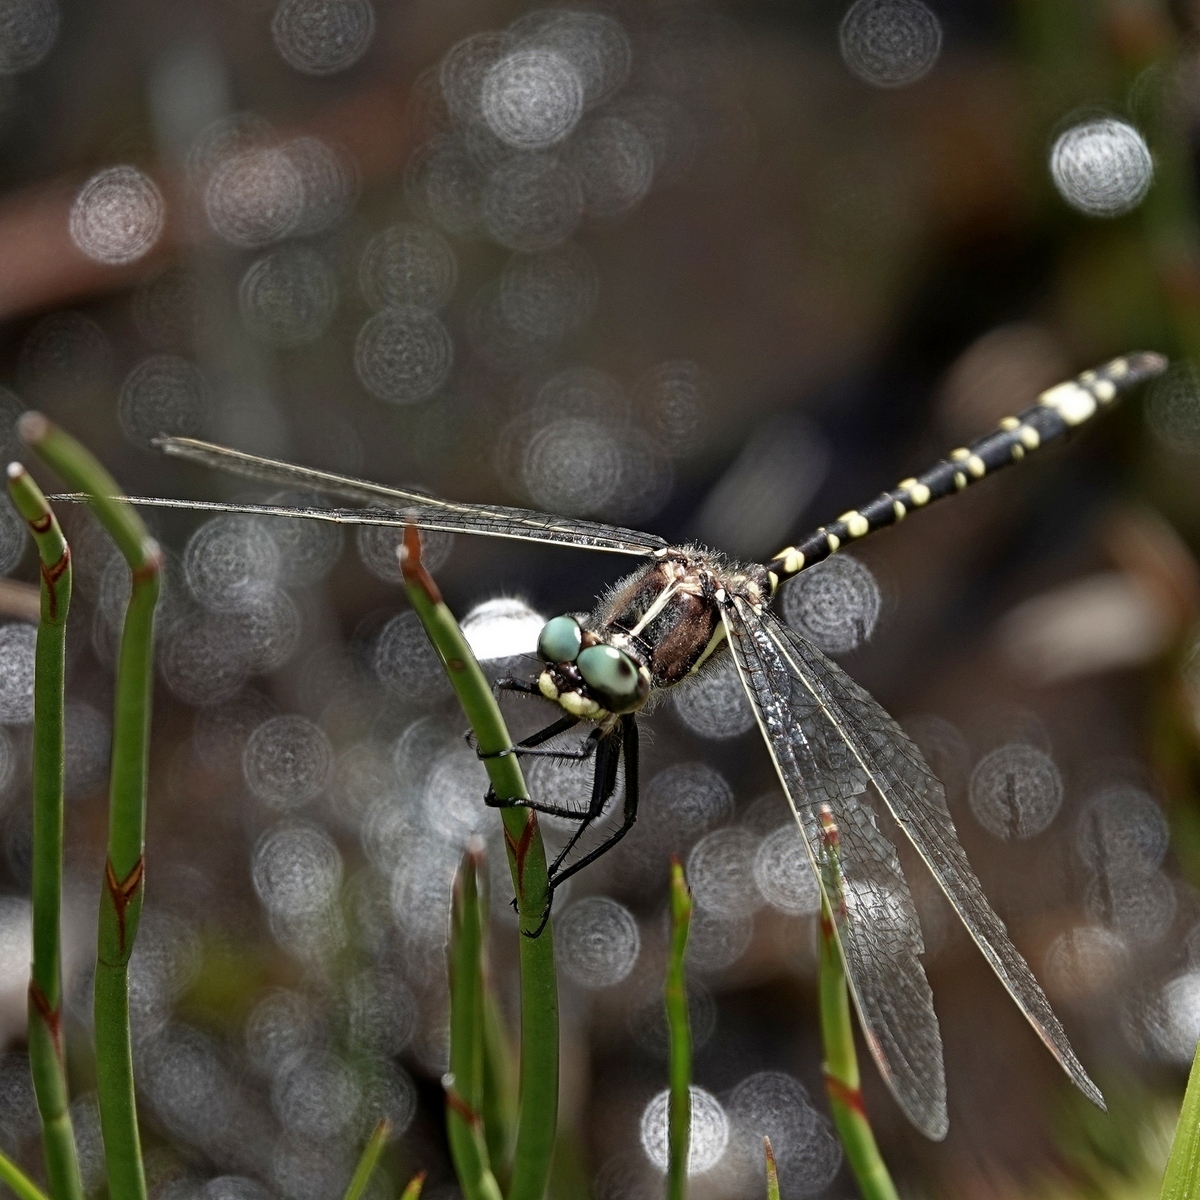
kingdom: Animalia
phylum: Arthropoda
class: Insecta
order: Odonata
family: Synthemistidae
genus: Synthemis
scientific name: Synthemis eustalacta
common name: Swamp tigertail
